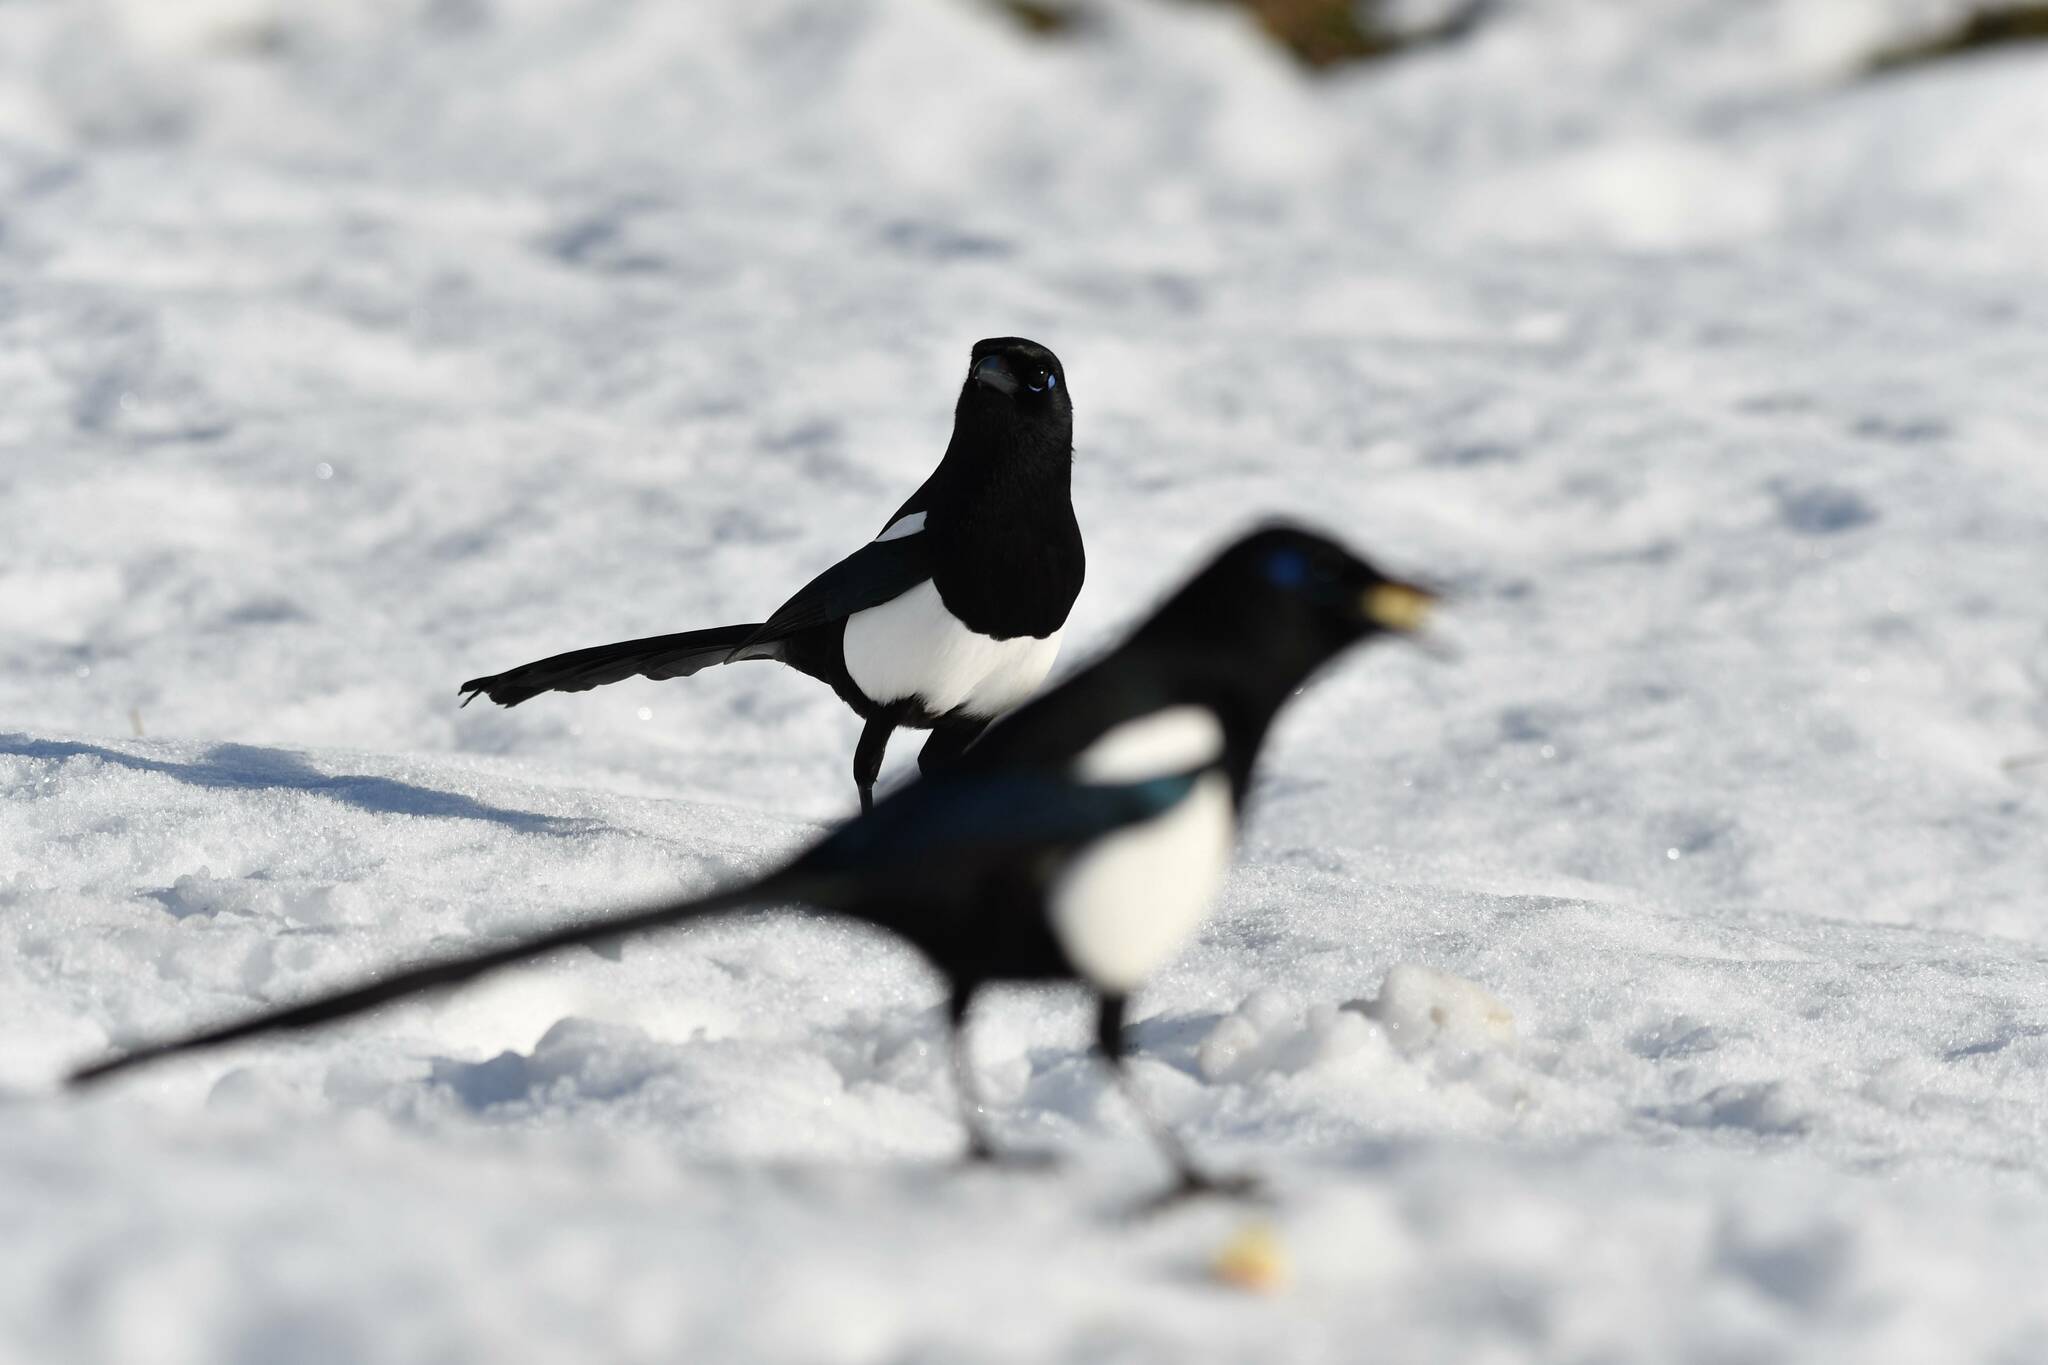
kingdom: Animalia
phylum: Chordata
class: Aves
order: Passeriformes
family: Corvidae
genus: Pica
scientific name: Pica mauritanica
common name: Maghreb magpie
